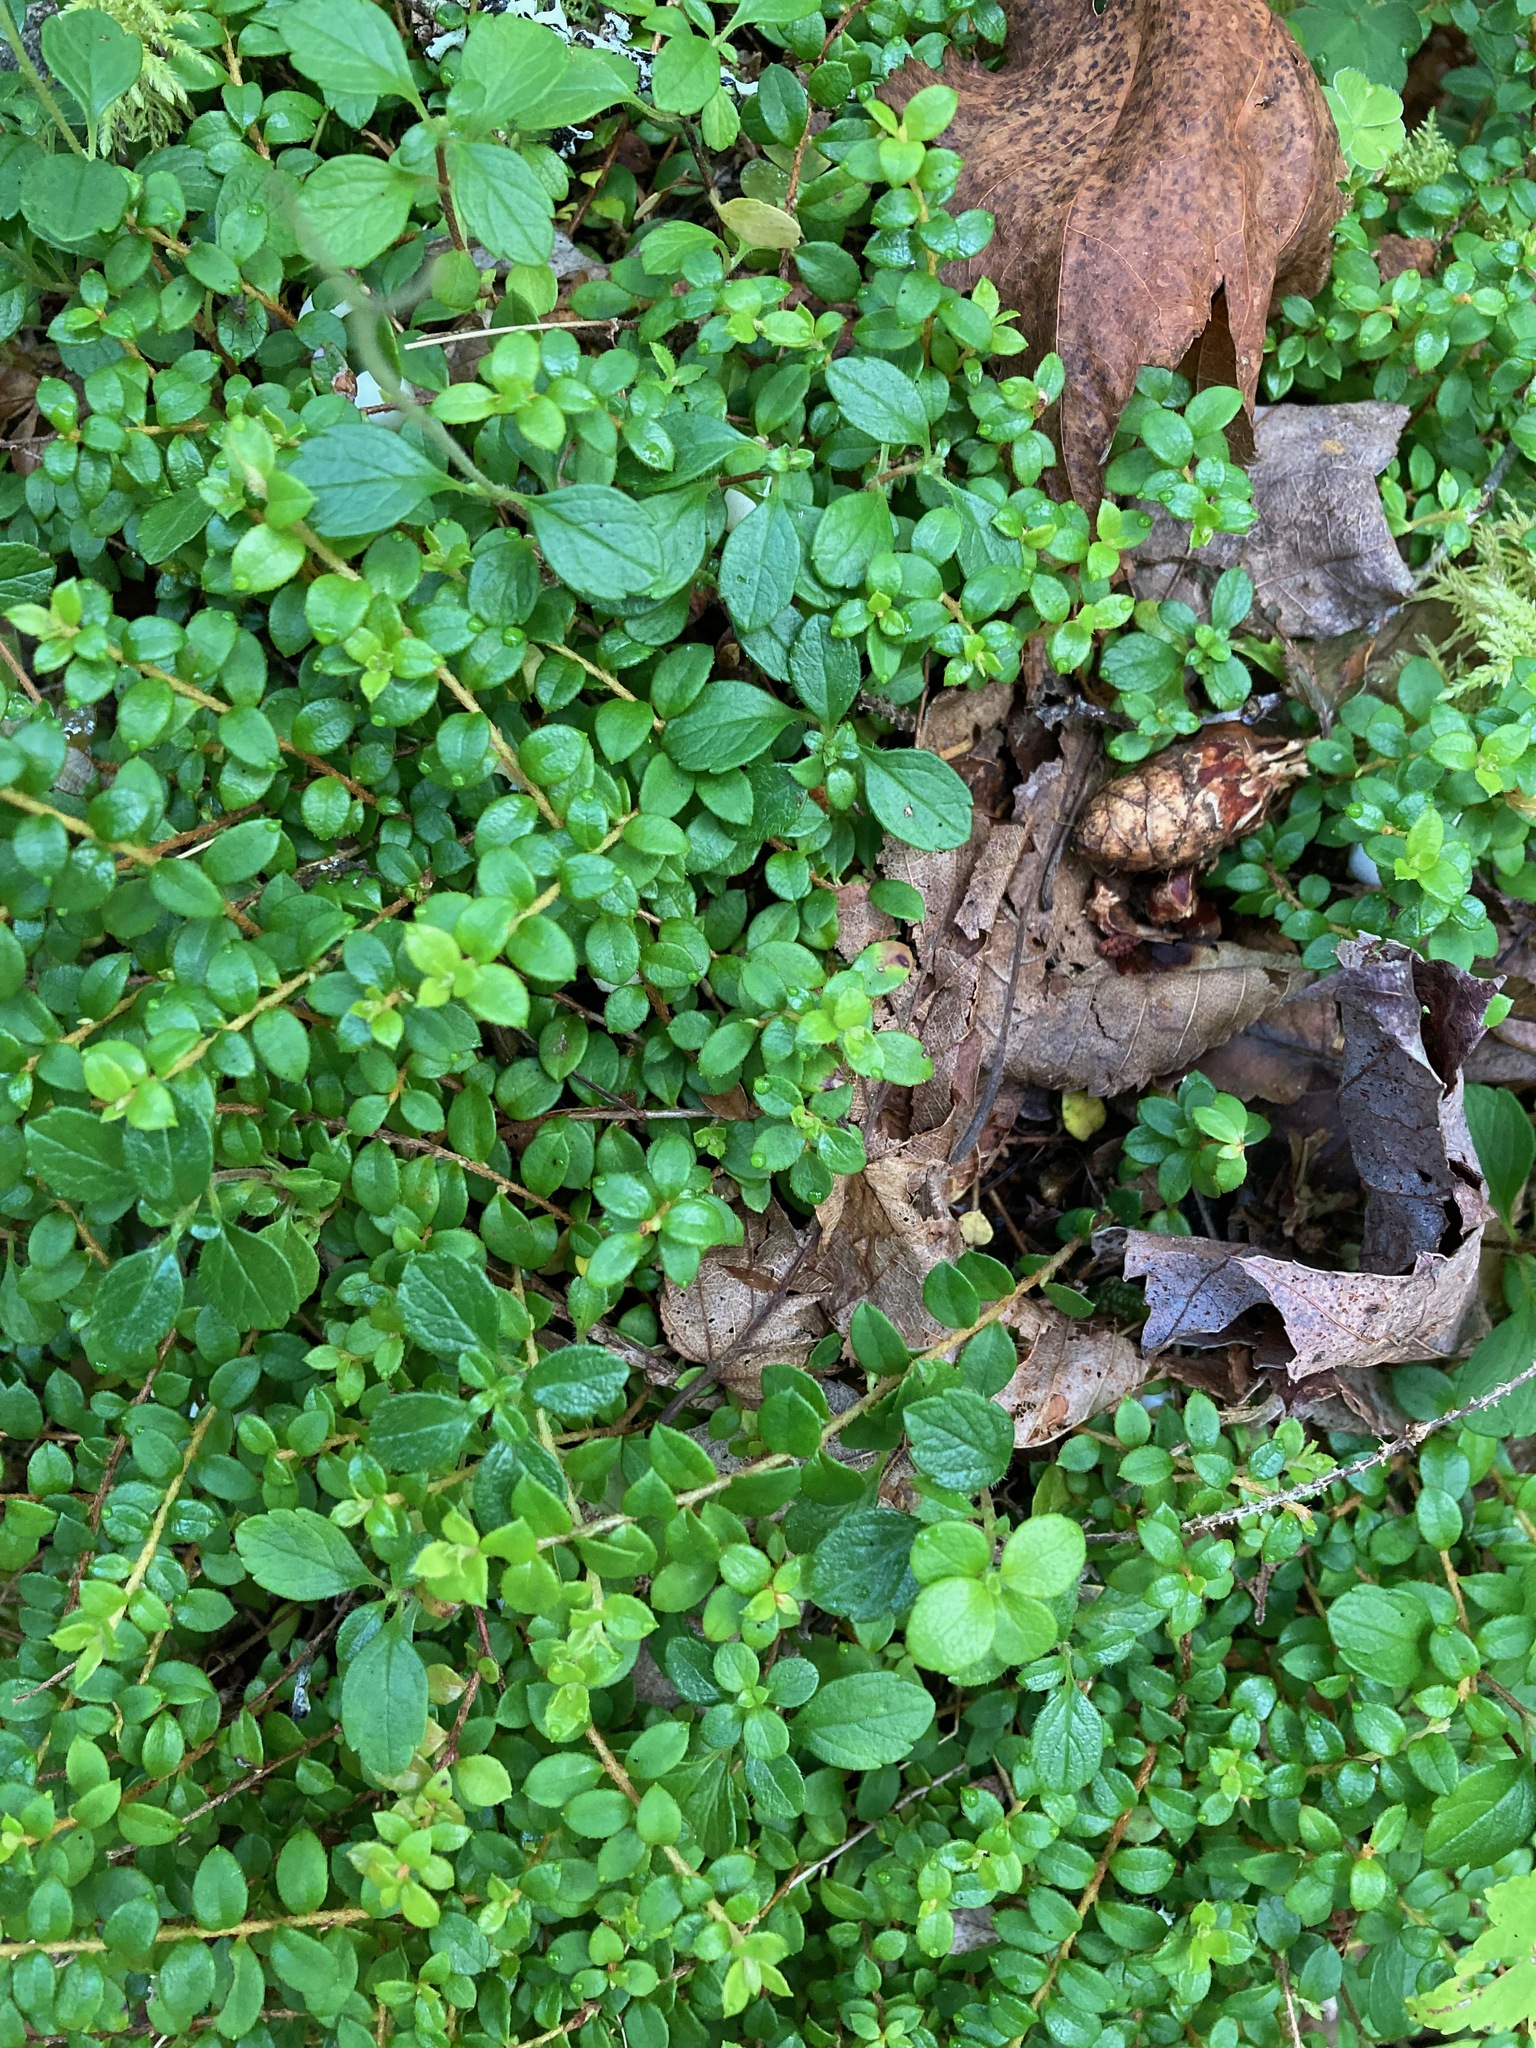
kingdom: Plantae
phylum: Tracheophyta
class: Magnoliopsida
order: Ericales
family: Ericaceae
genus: Gaultheria
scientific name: Gaultheria hispidula
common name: Cancer wintergreen
